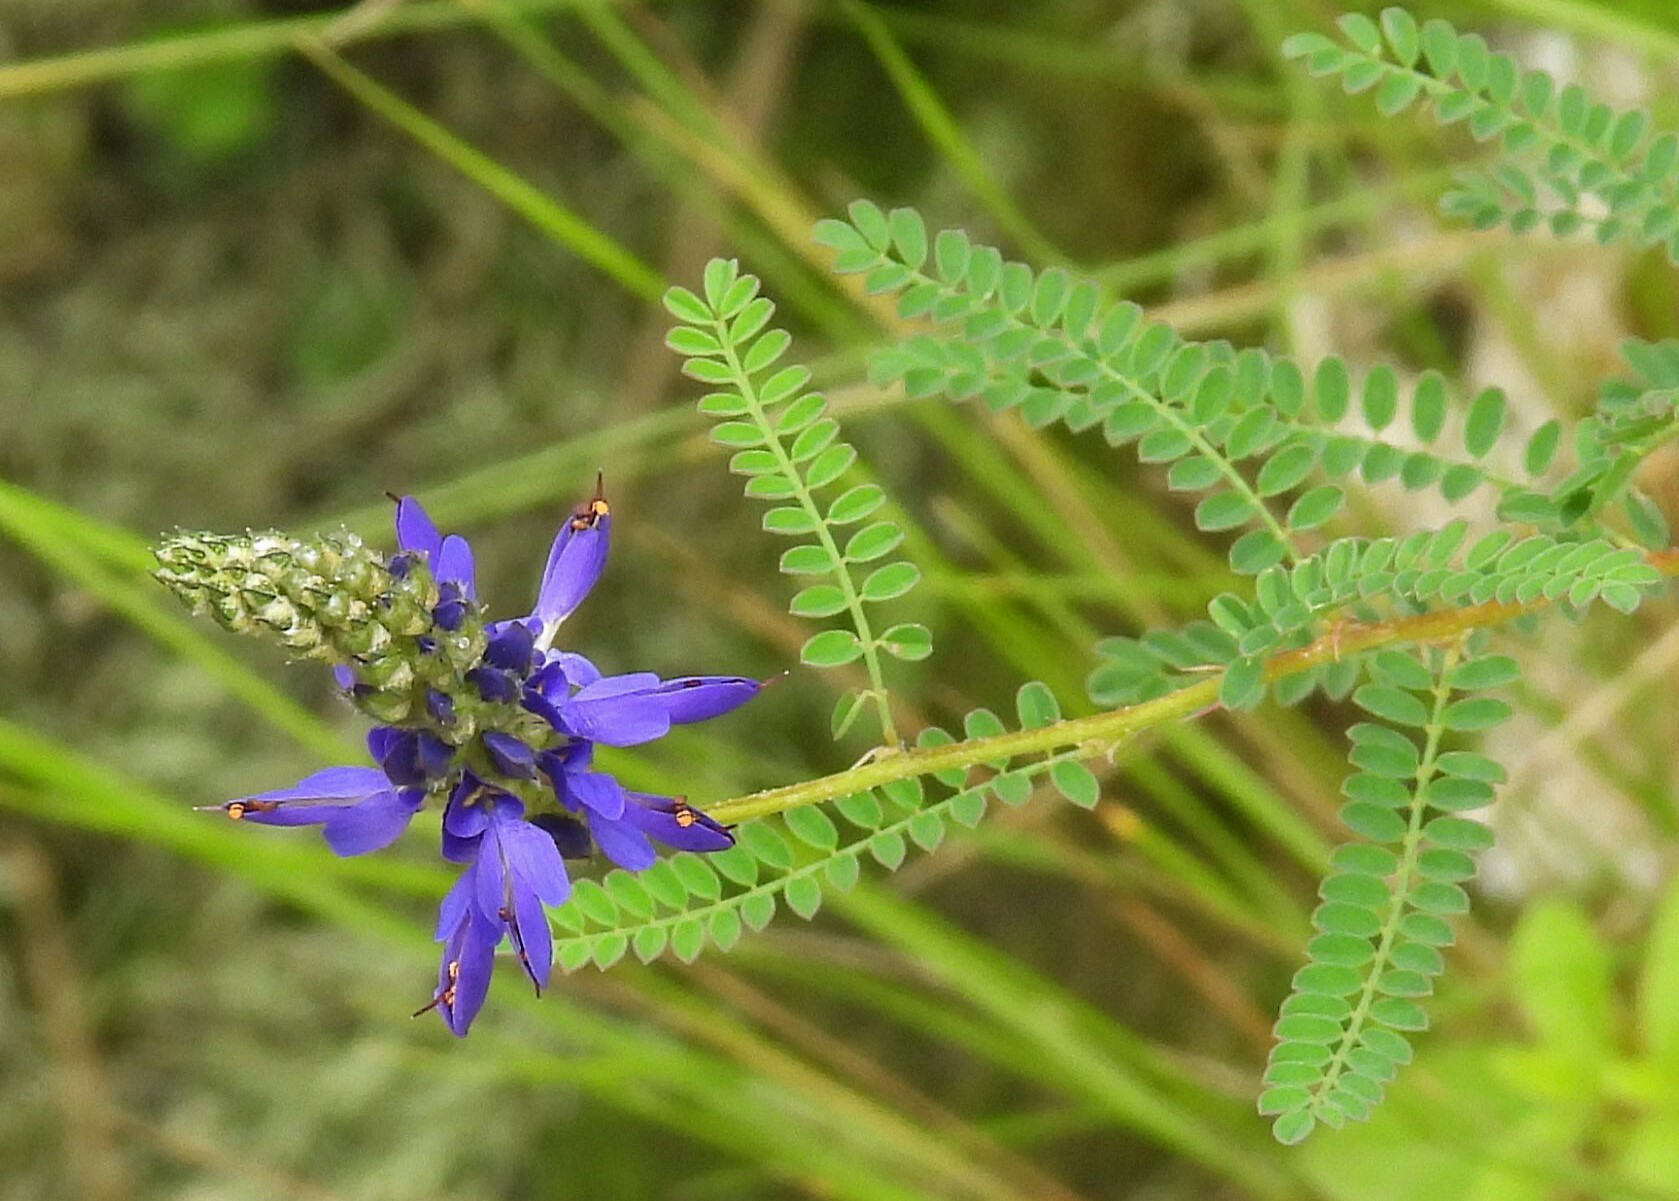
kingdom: Plantae
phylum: Tracheophyta
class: Magnoliopsida
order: Fabales
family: Fabaceae
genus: Dalea
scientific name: Dalea elegans
